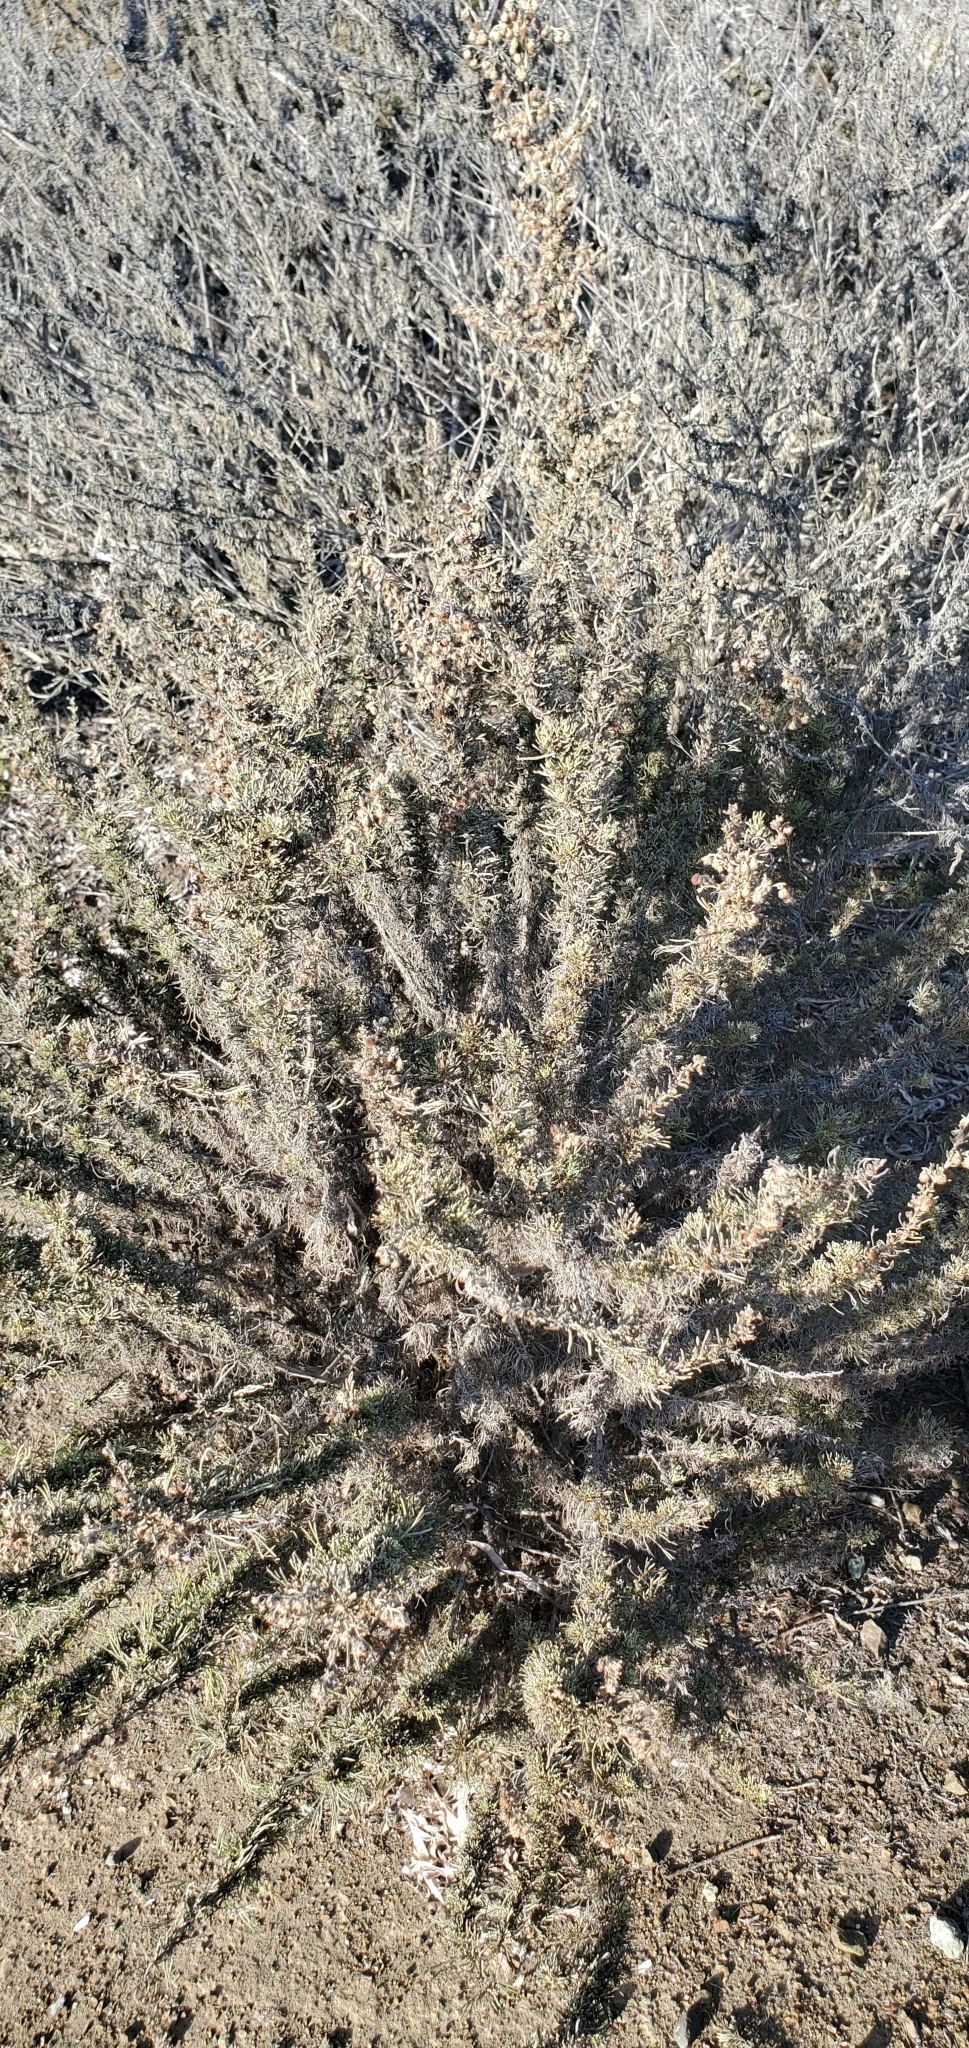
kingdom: Plantae
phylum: Tracheophyta
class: Magnoliopsida
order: Asterales
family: Asteraceae
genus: Artemisia
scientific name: Artemisia californica
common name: California sagebrush
